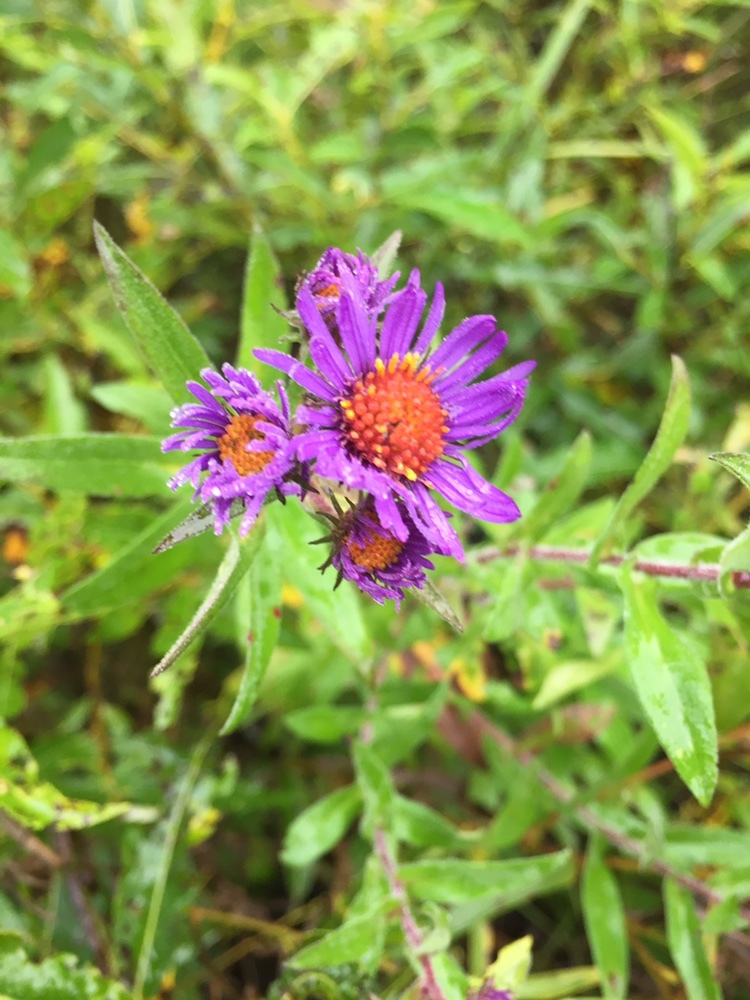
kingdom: Plantae
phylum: Tracheophyta
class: Magnoliopsida
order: Asterales
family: Asteraceae
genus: Symphyotrichum
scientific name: Symphyotrichum novae-angliae
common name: Michaelmas daisy
